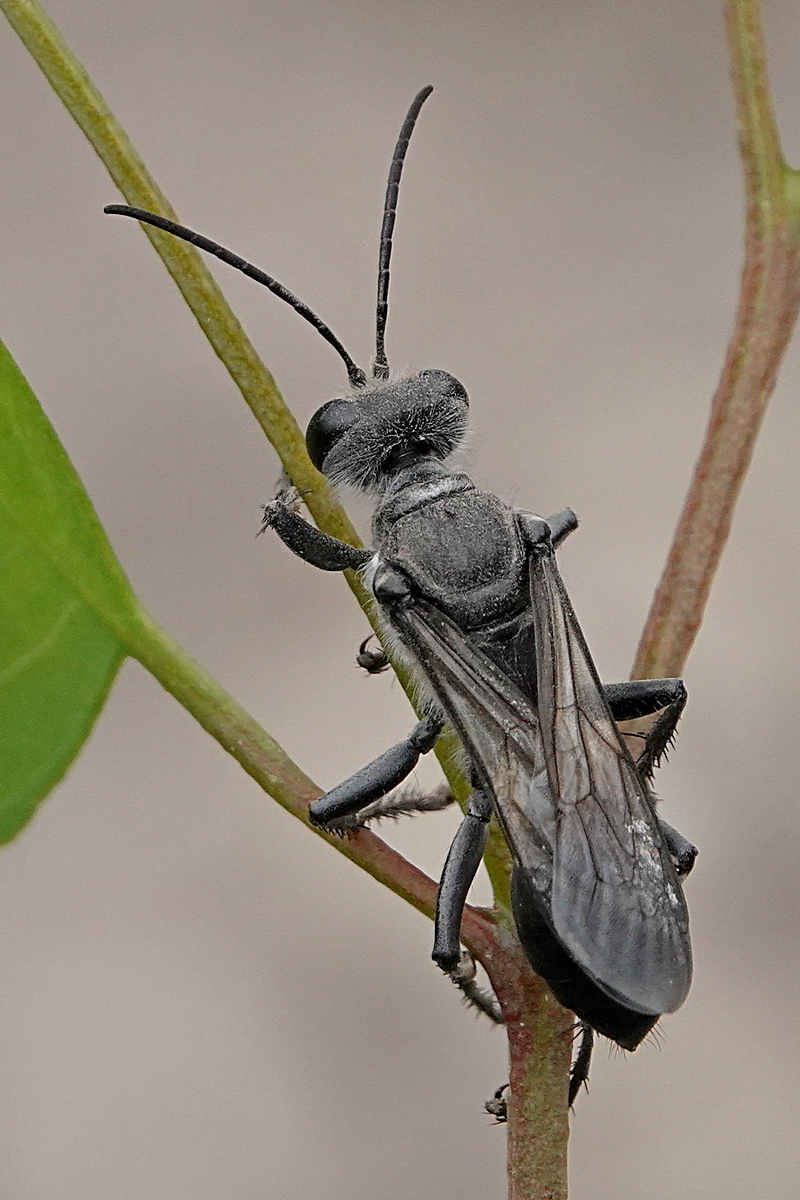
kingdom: Animalia
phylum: Arthropoda
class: Insecta
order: Hymenoptera
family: Sphecidae
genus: Sphex
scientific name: Sphex bilobatus
